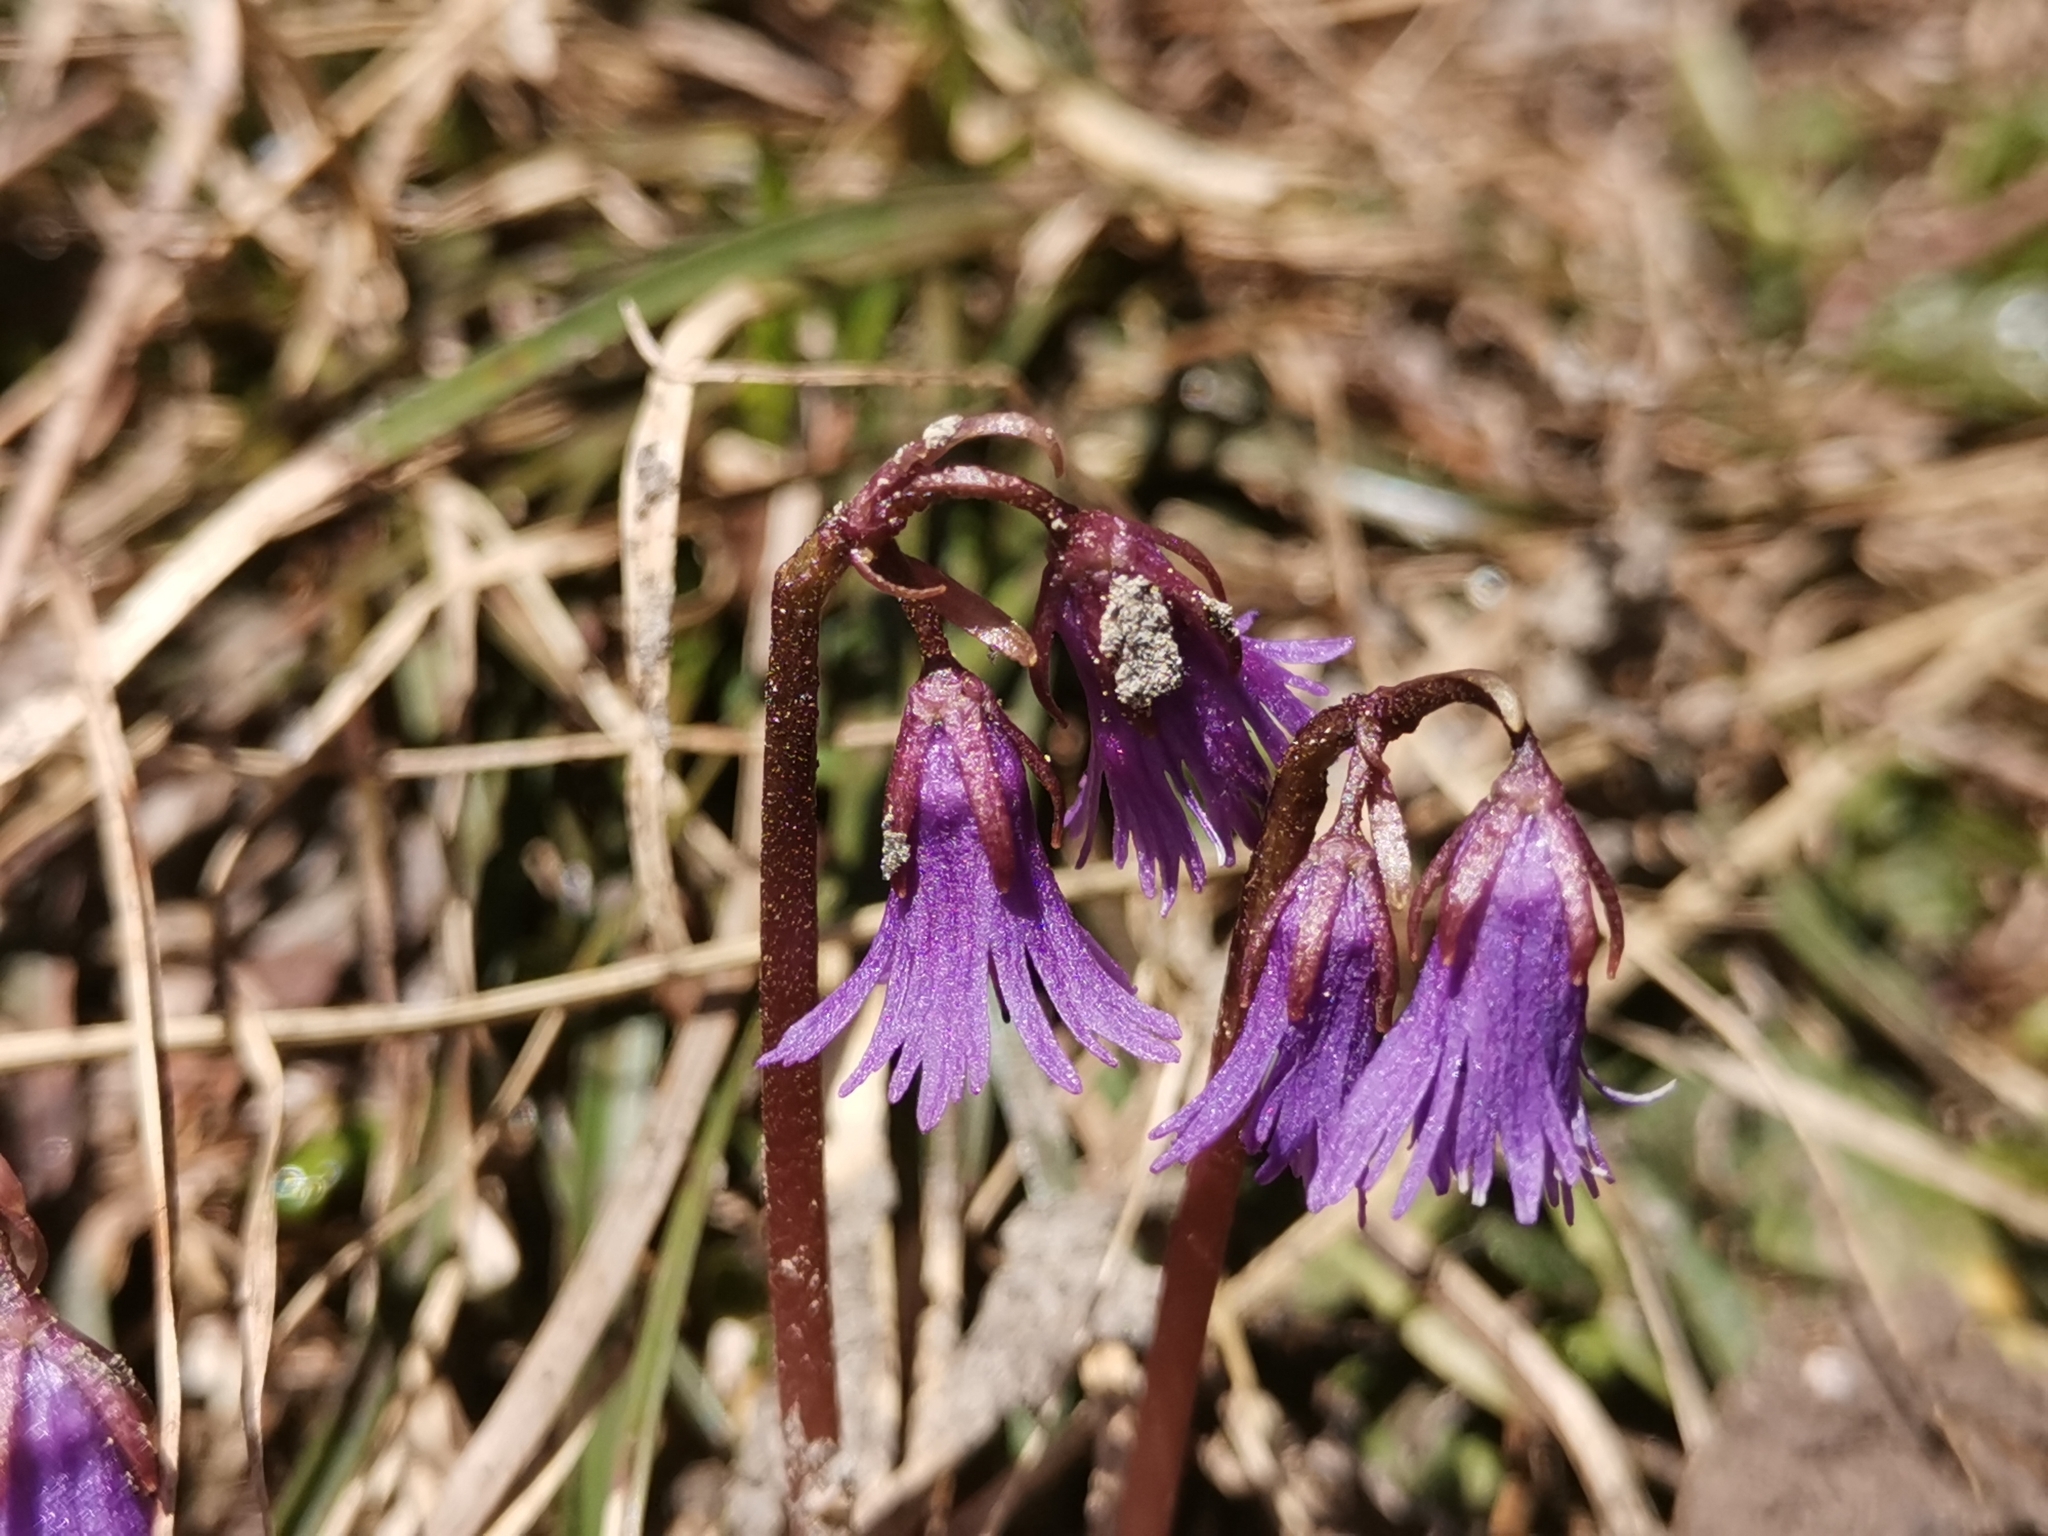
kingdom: Plantae
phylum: Tracheophyta
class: Magnoliopsida
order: Ericales
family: Primulaceae
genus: Soldanella
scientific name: Soldanella alpina
